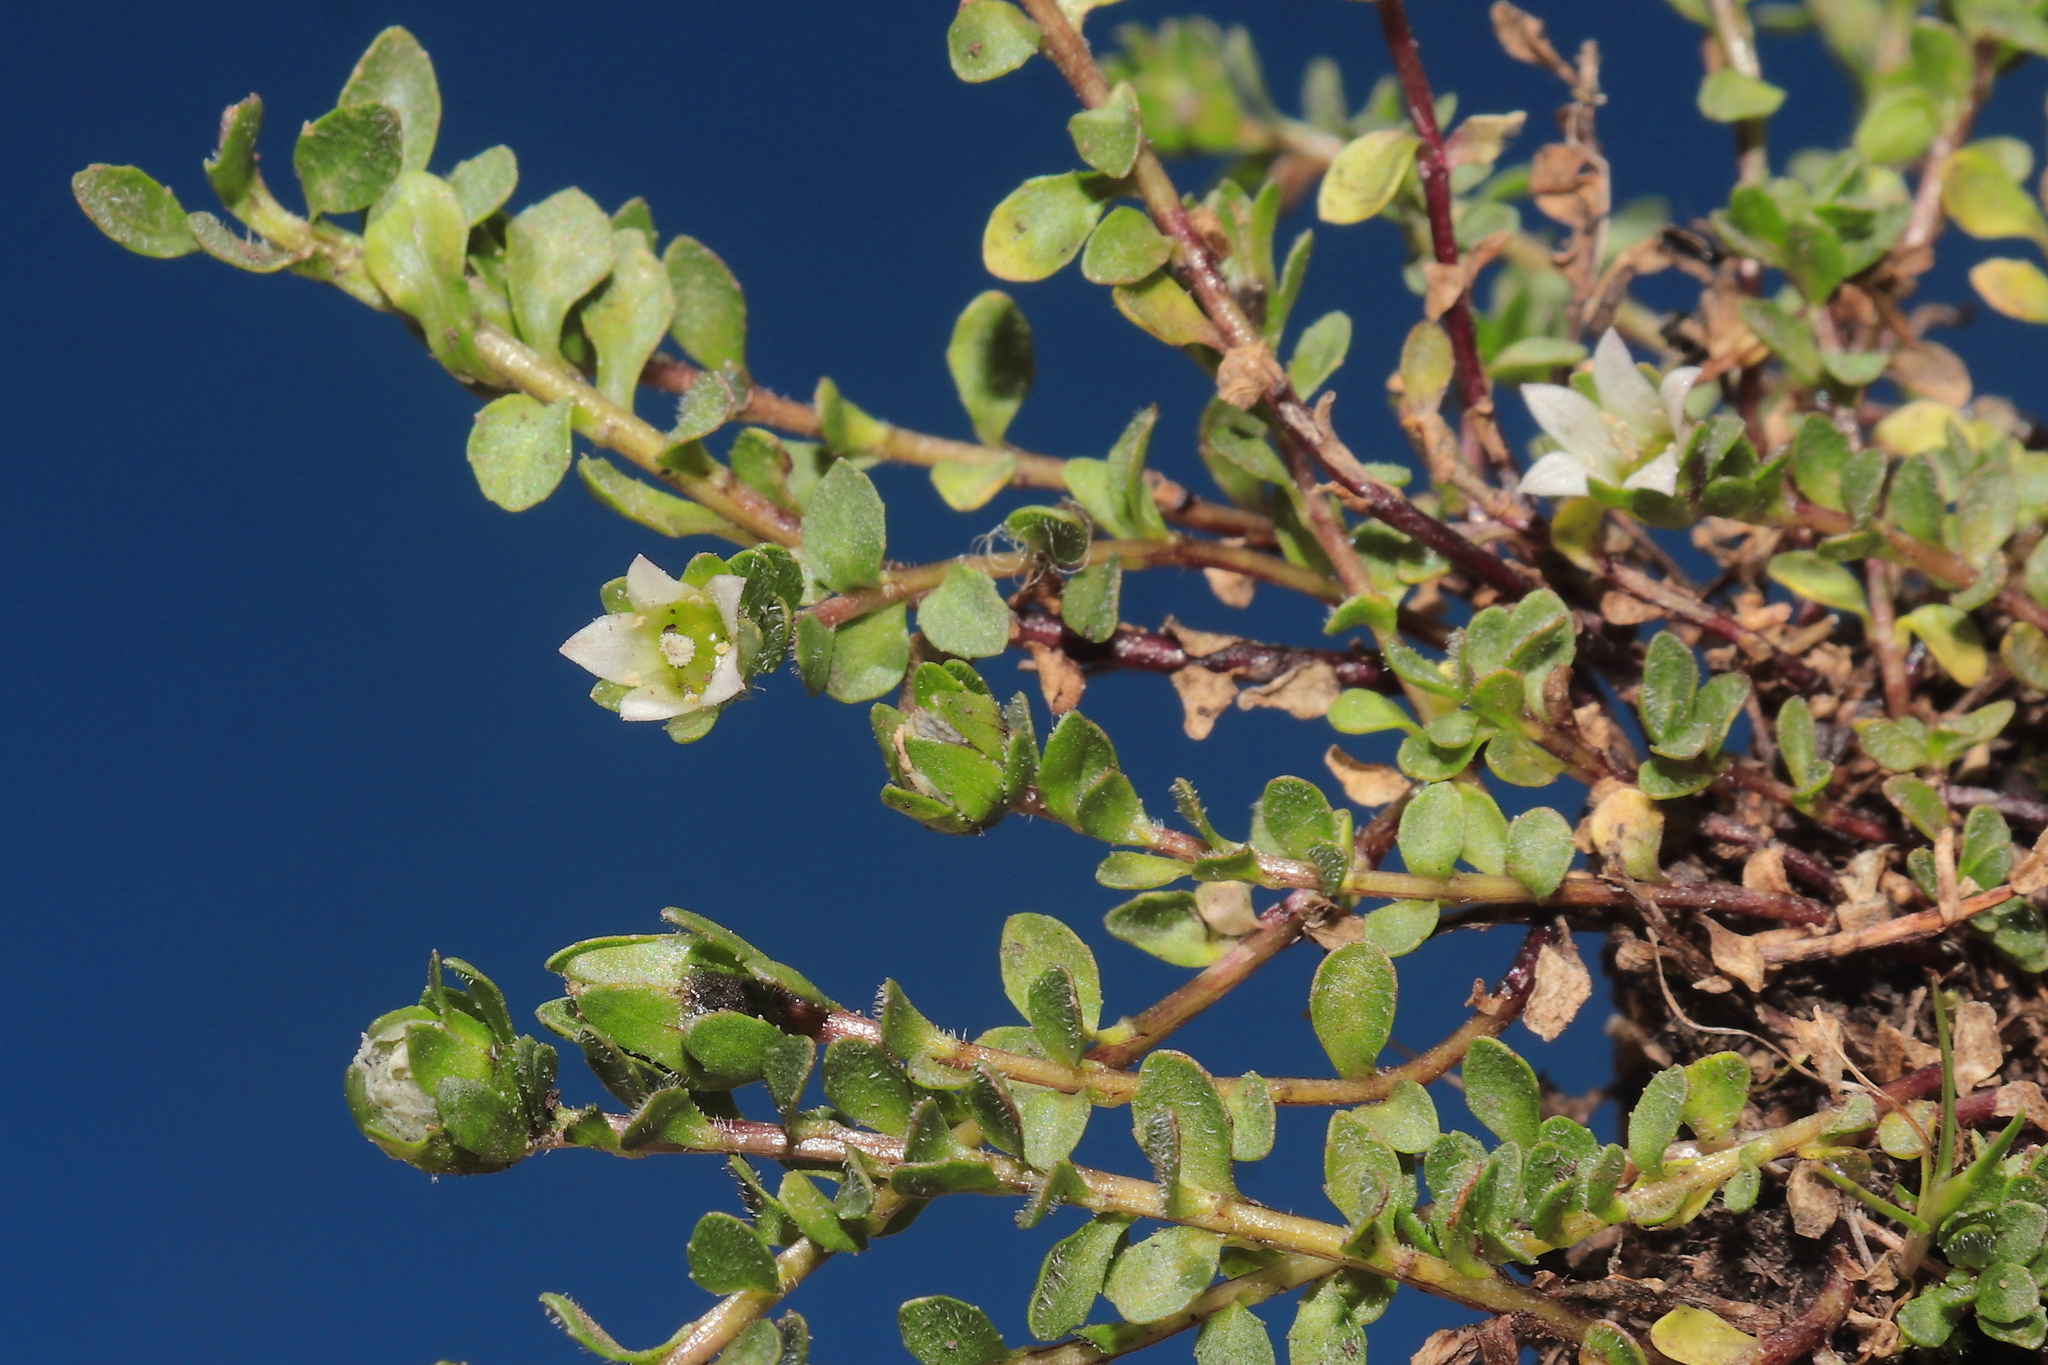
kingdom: Plantae
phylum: Tracheophyta
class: Magnoliopsida
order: Asterales
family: Campanulaceae
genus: Wahlenbergia
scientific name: Wahlenbergia peruviana
